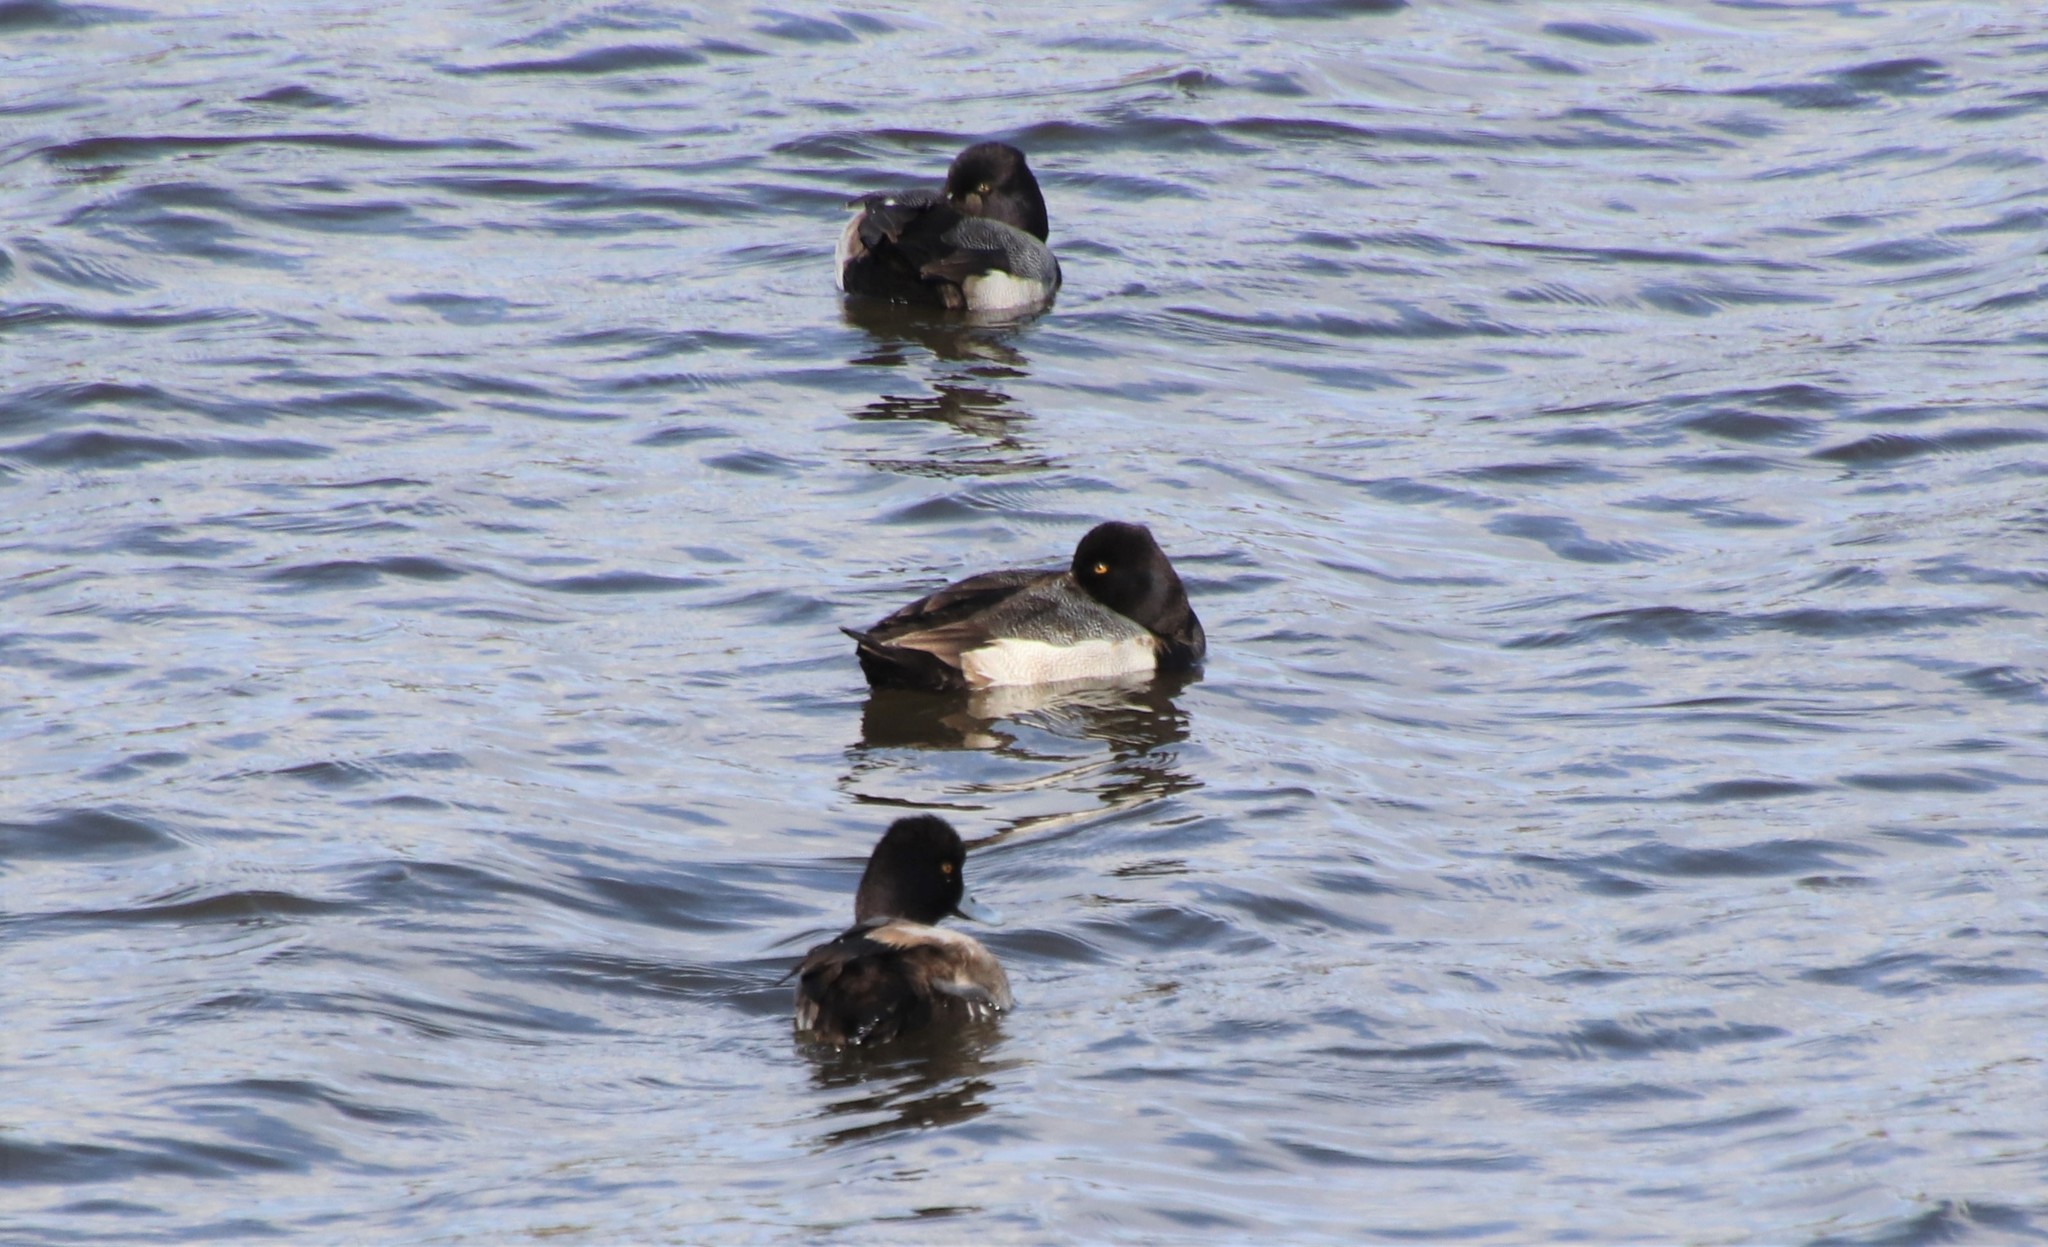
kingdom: Animalia
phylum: Chordata
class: Aves
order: Anseriformes
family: Anatidae
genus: Aythya
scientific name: Aythya affinis
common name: Lesser scaup
